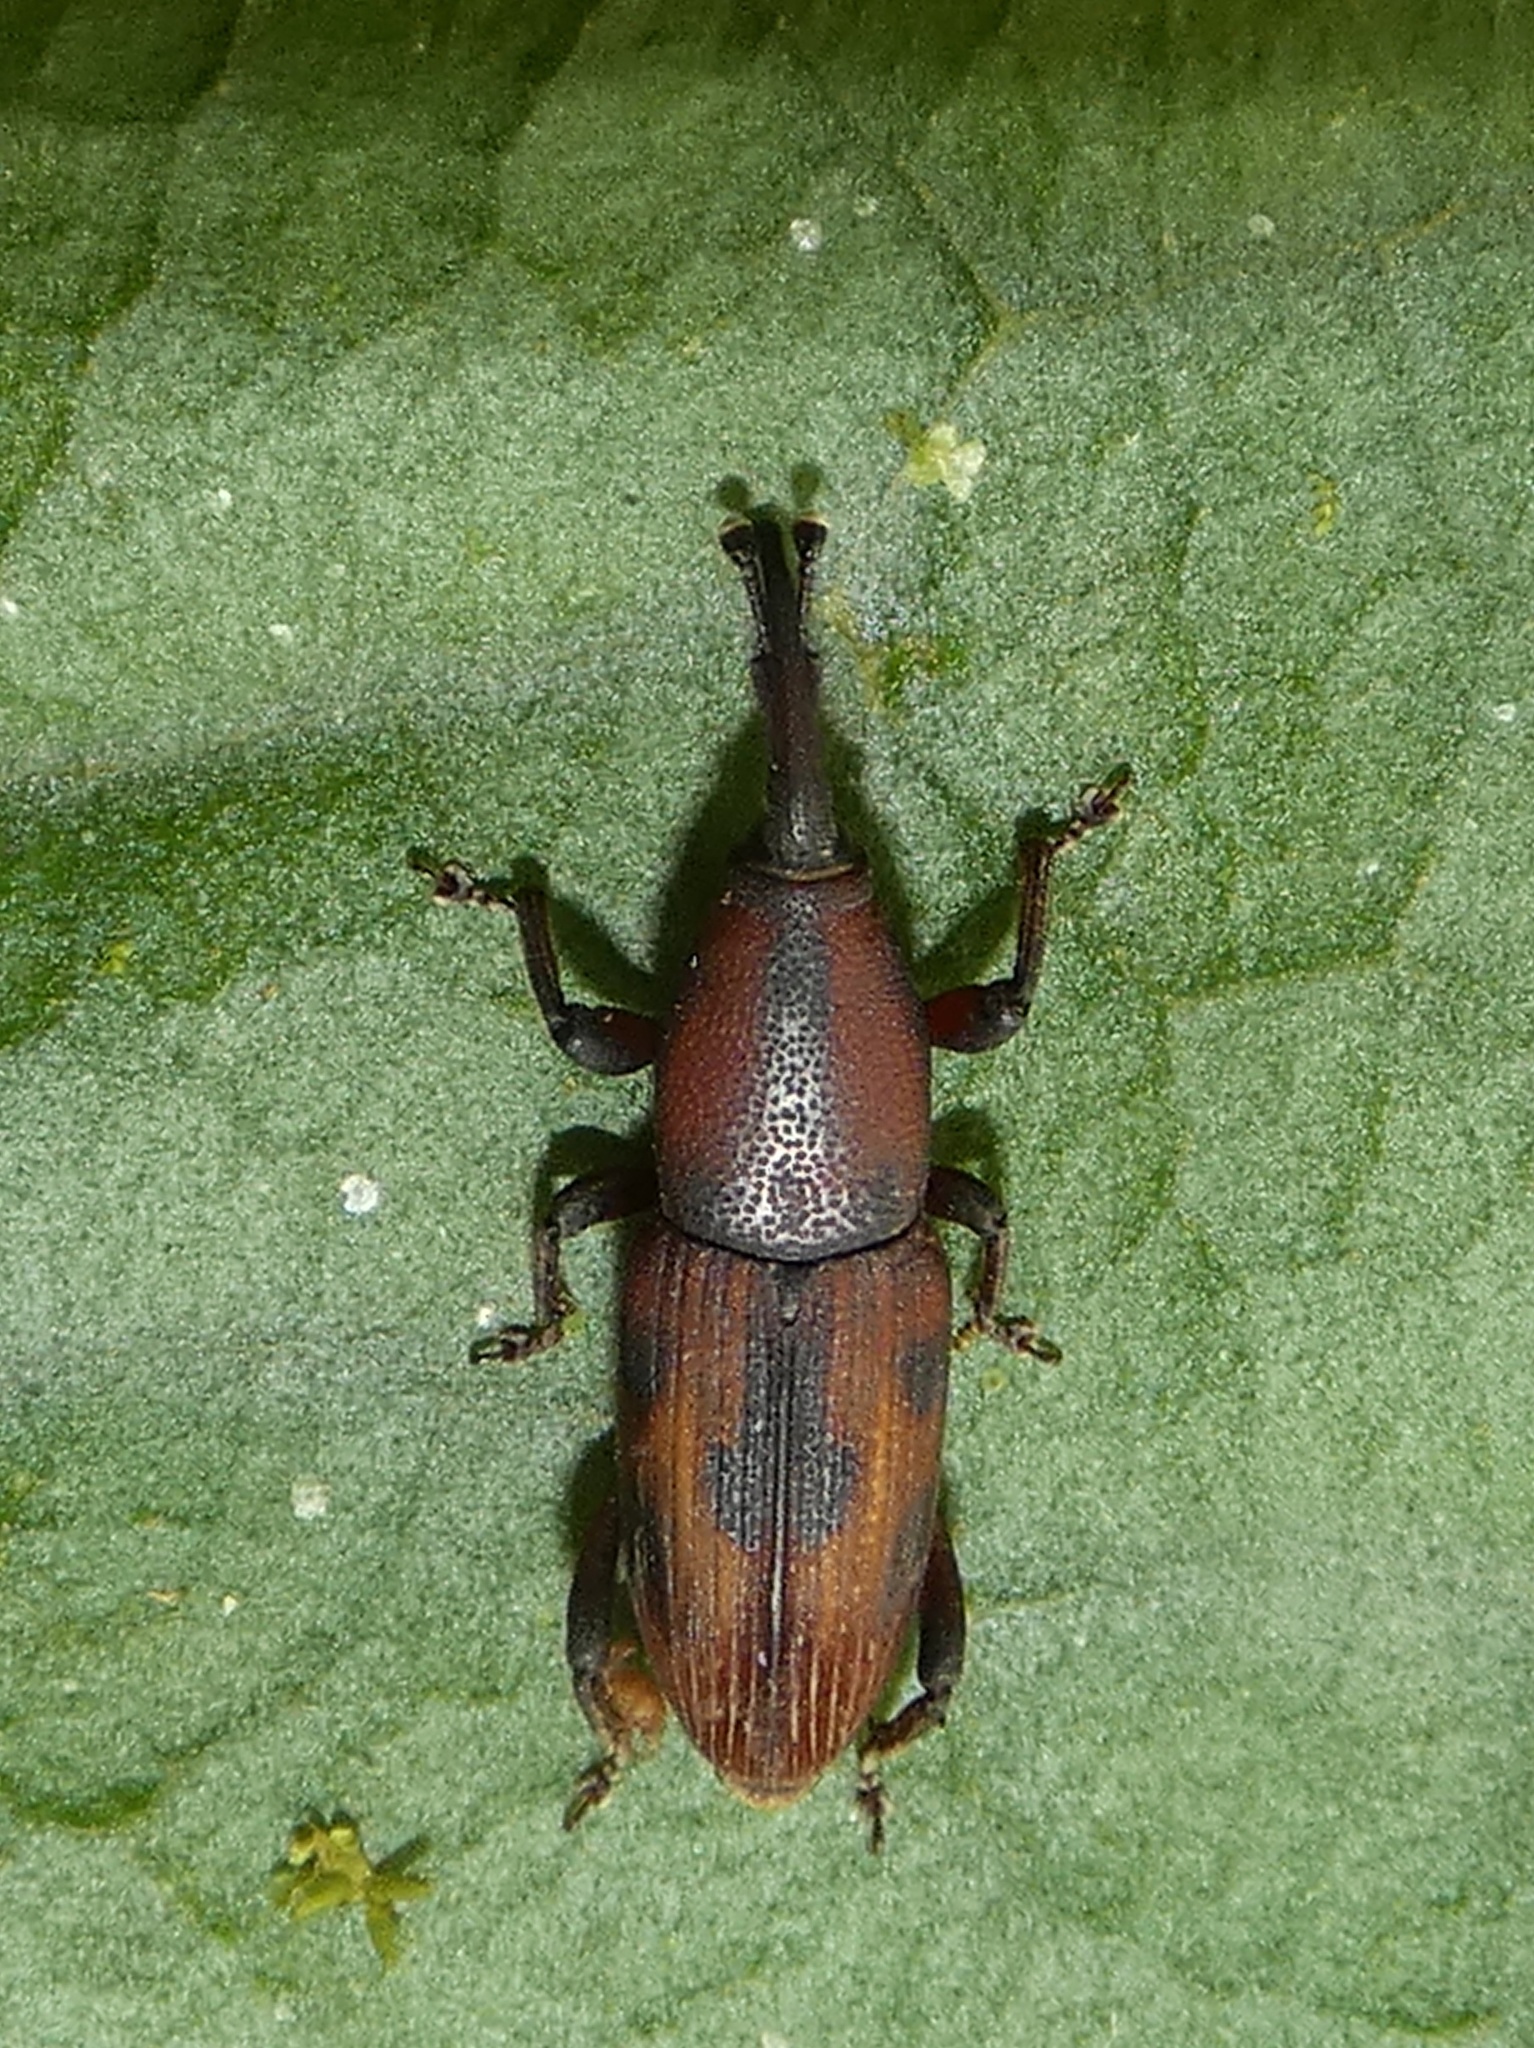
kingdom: Animalia
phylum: Arthropoda
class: Insecta
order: Coleoptera
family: Dryophthoridae
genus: Metamasius
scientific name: Metamasius submaculatus
